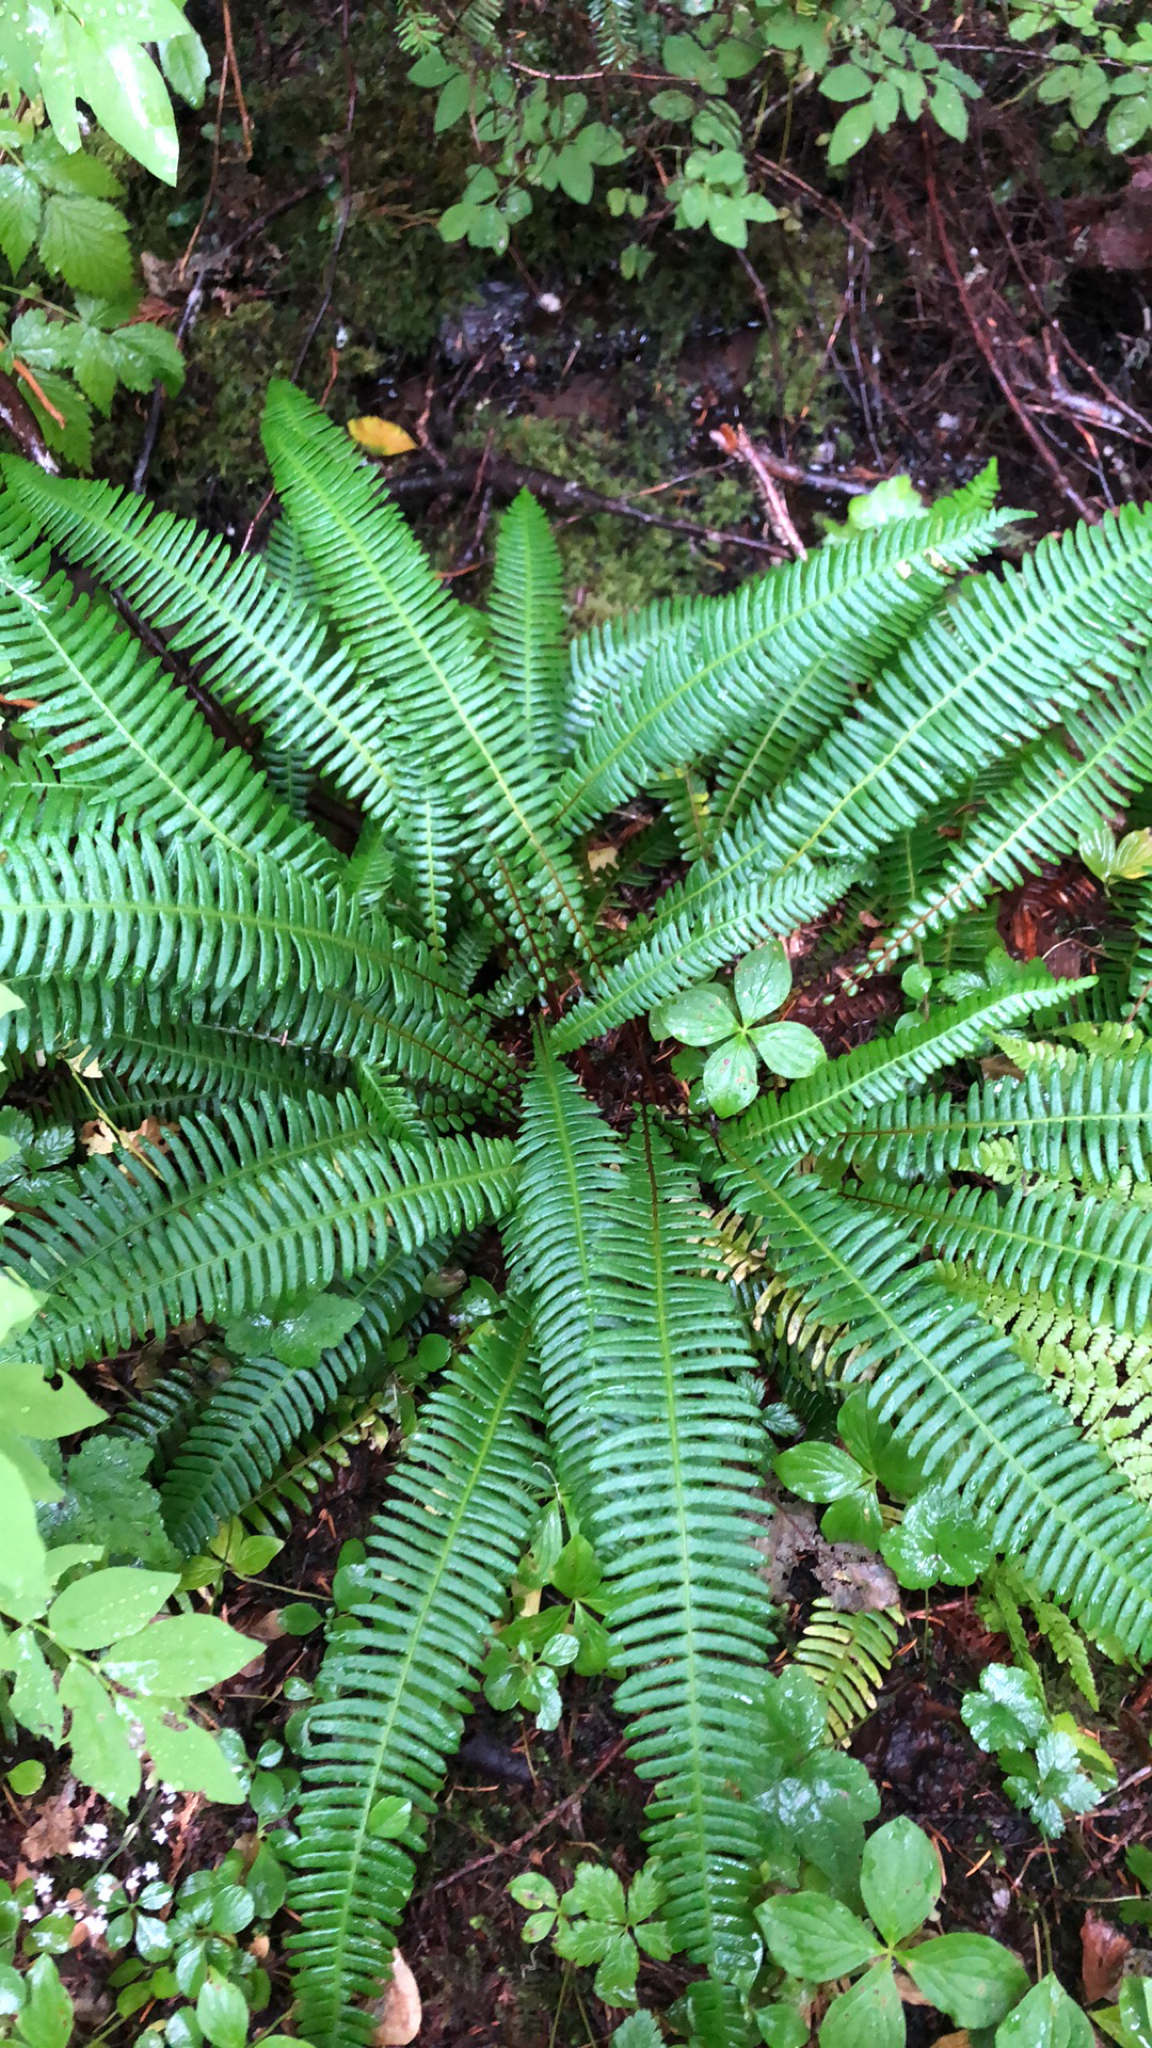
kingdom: Plantae
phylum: Tracheophyta
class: Polypodiopsida
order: Polypodiales
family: Blechnaceae
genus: Struthiopteris
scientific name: Struthiopteris spicant
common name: Deer fern
